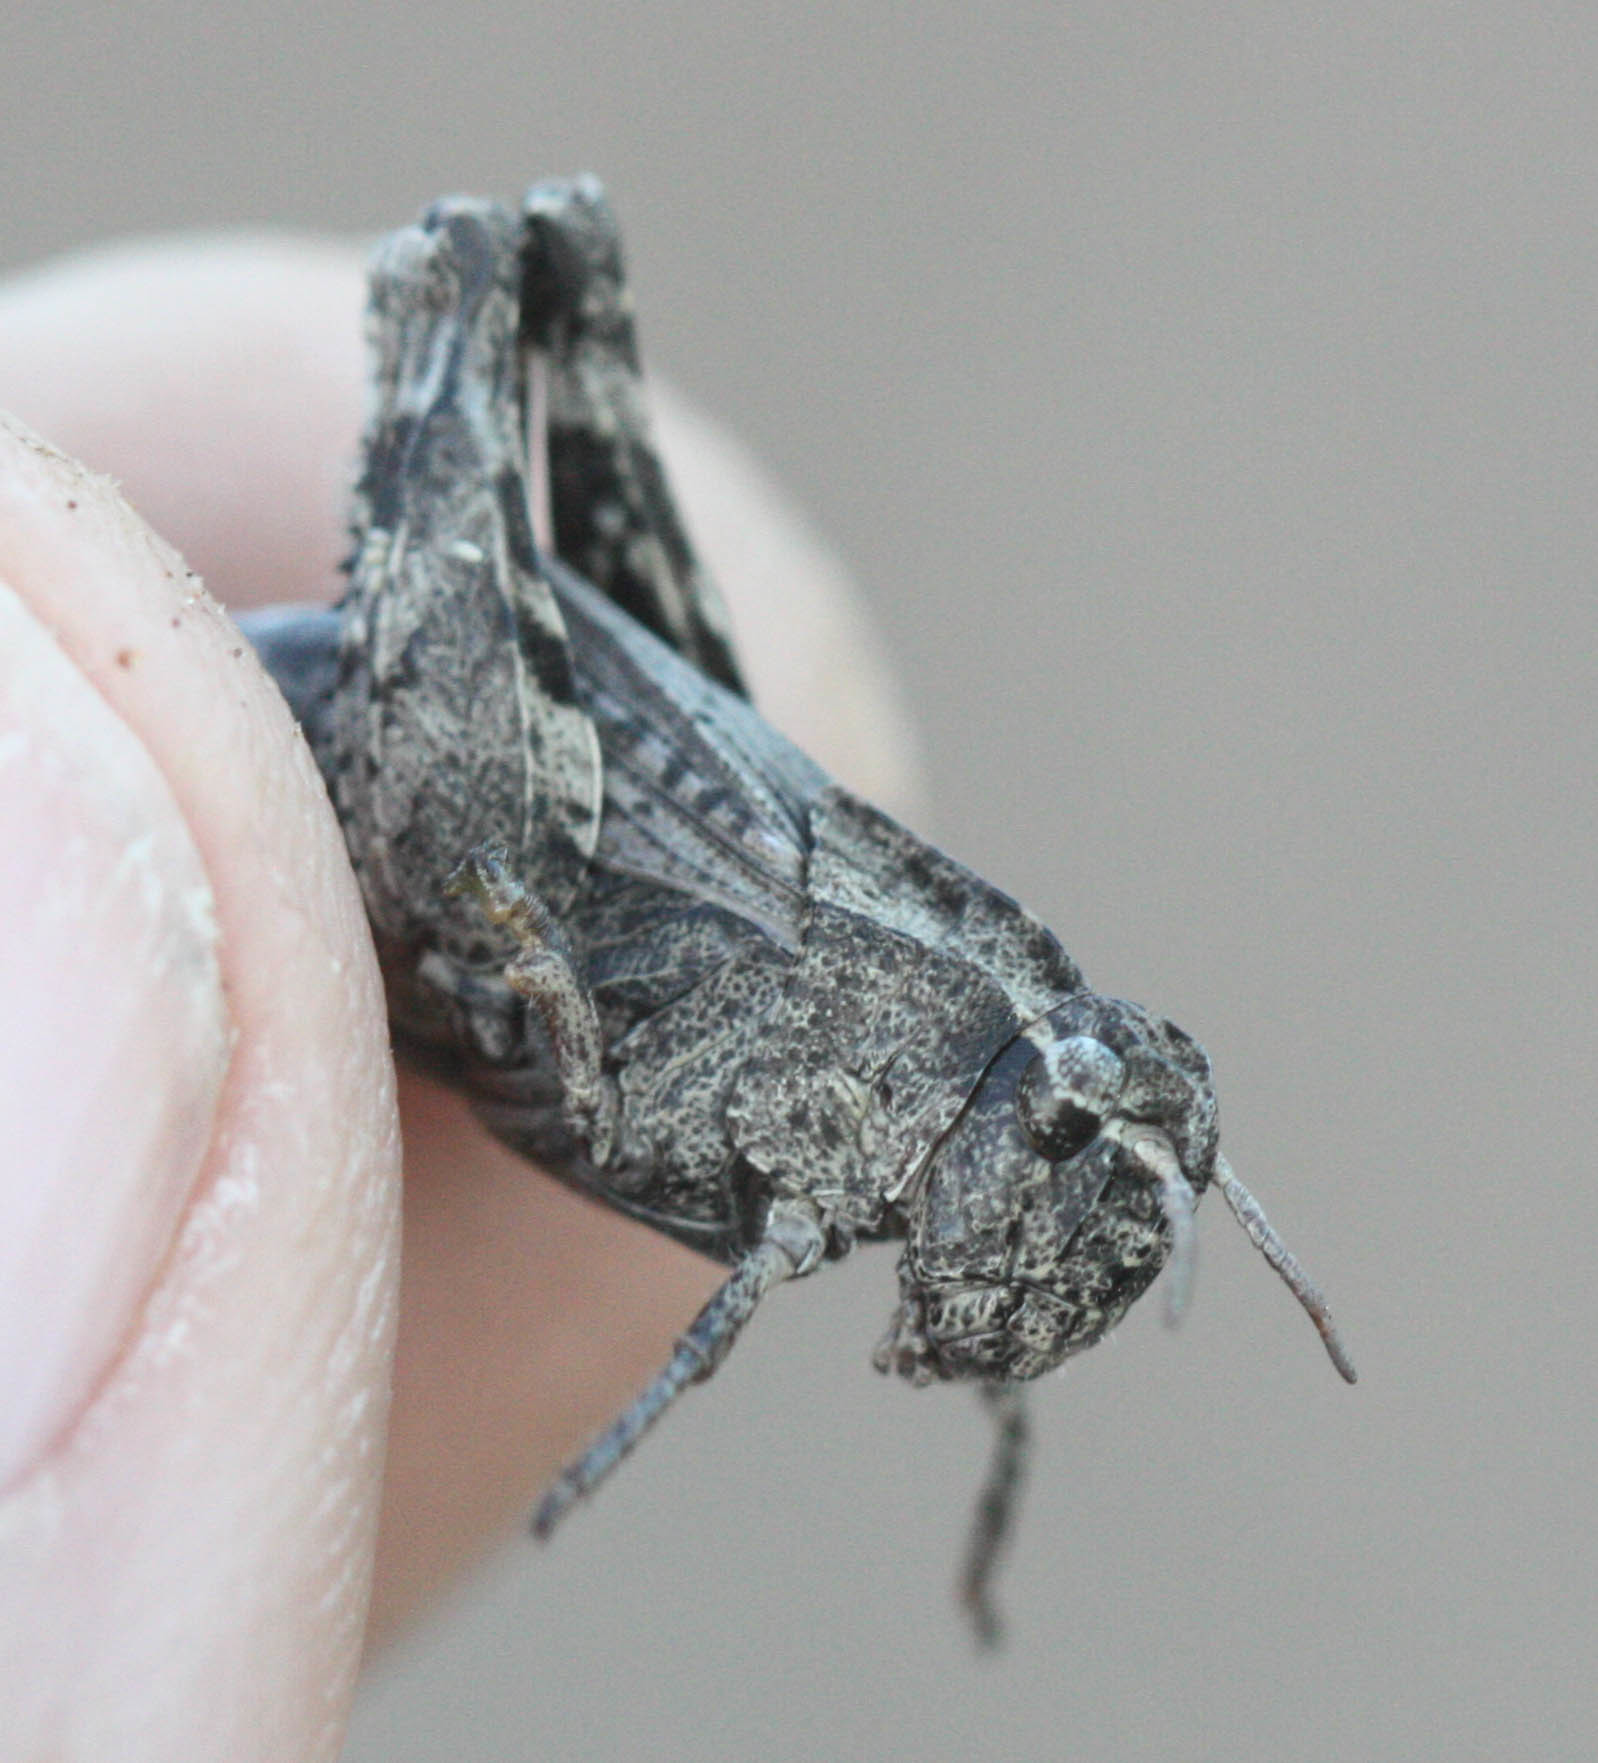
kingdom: Animalia
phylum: Arthropoda
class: Insecta
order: Orthoptera
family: Acrididae
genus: Chimarocephala
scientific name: Chimarocephala pacifica
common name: Painted meadow grasshopper
